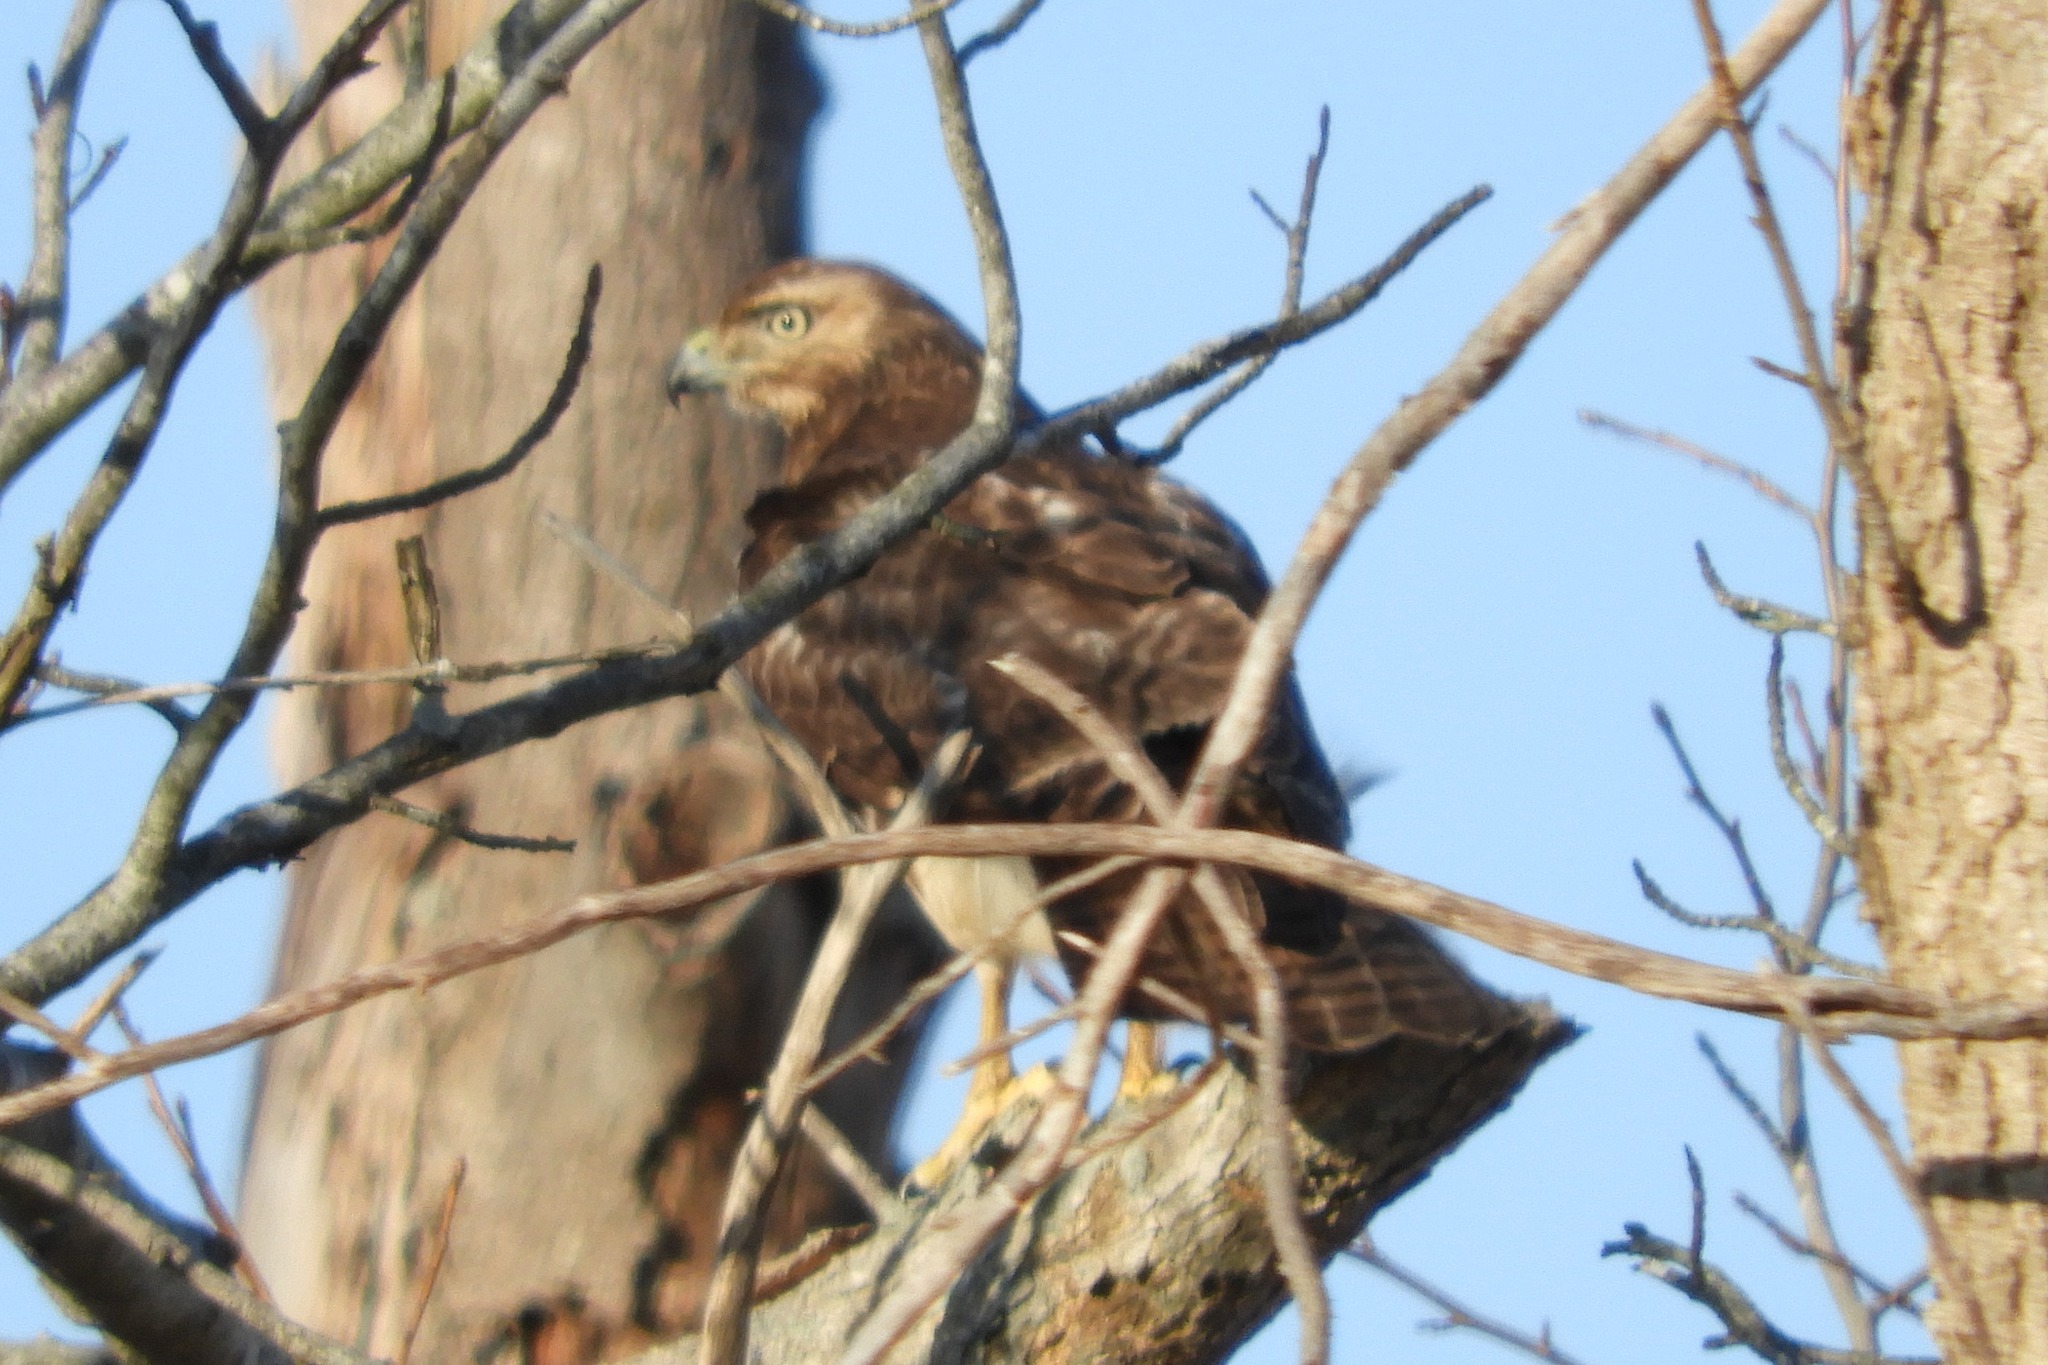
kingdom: Animalia
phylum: Chordata
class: Aves
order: Accipitriformes
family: Accipitridae
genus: Buteo
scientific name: Buteo jamaicensis
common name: Red-tailed hawk
